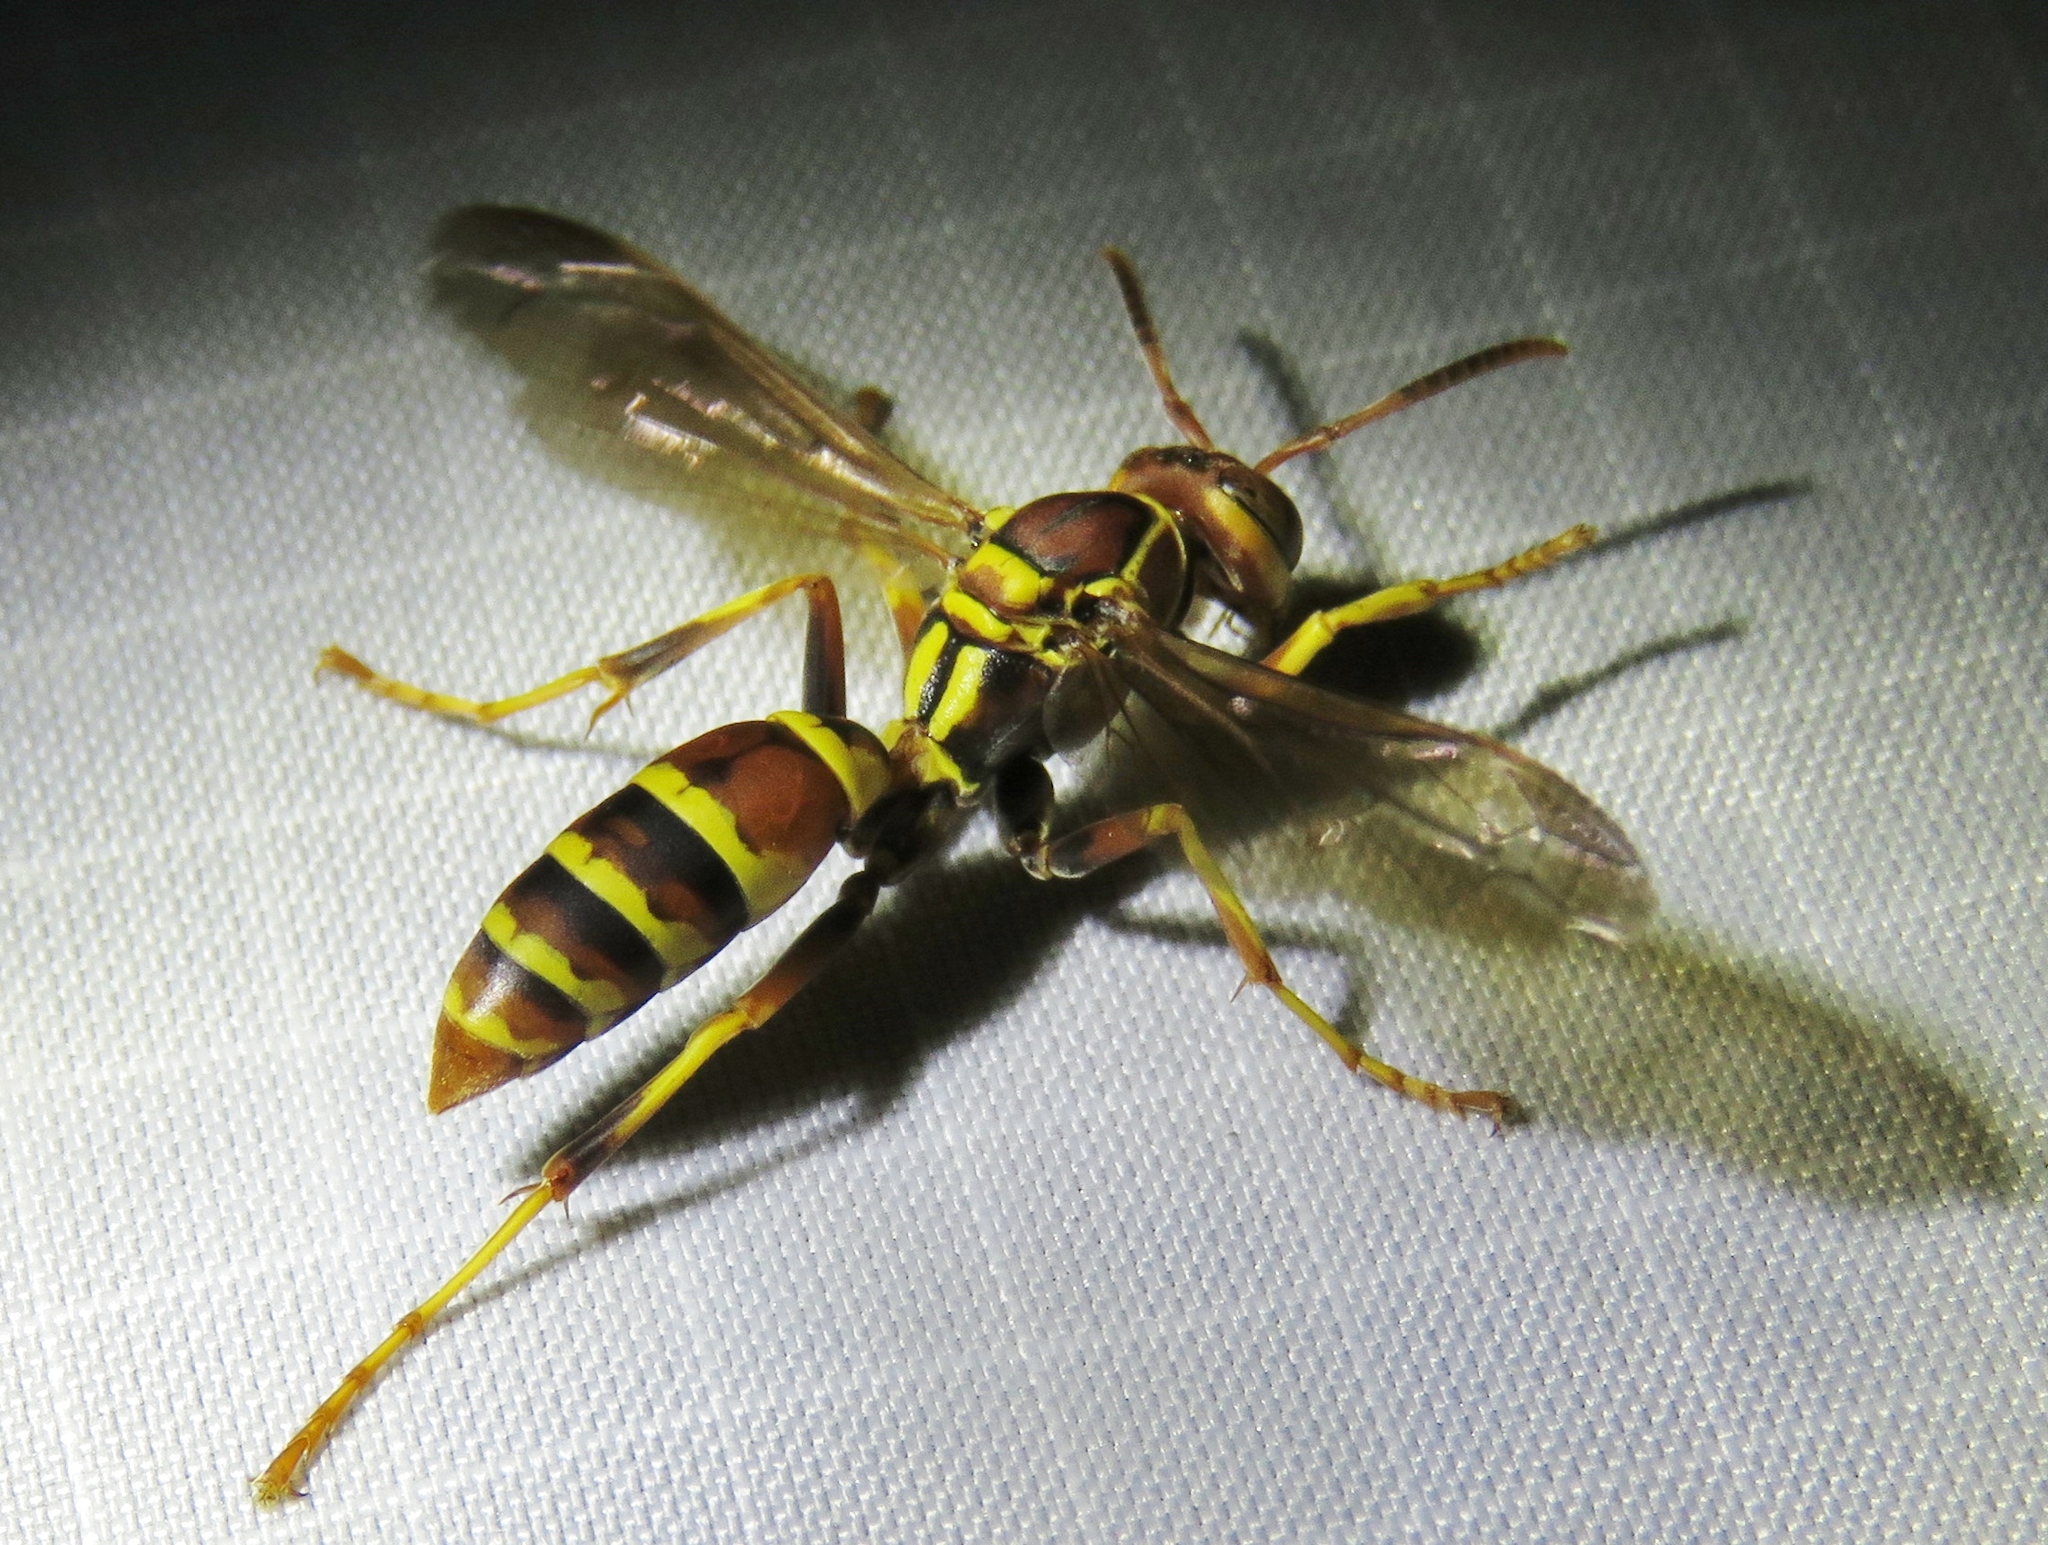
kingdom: Animalia
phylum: Arthropoda
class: Insecta
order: Hymenoptera
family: Eumenidae
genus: Polistes
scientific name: Polistes dorsalis
